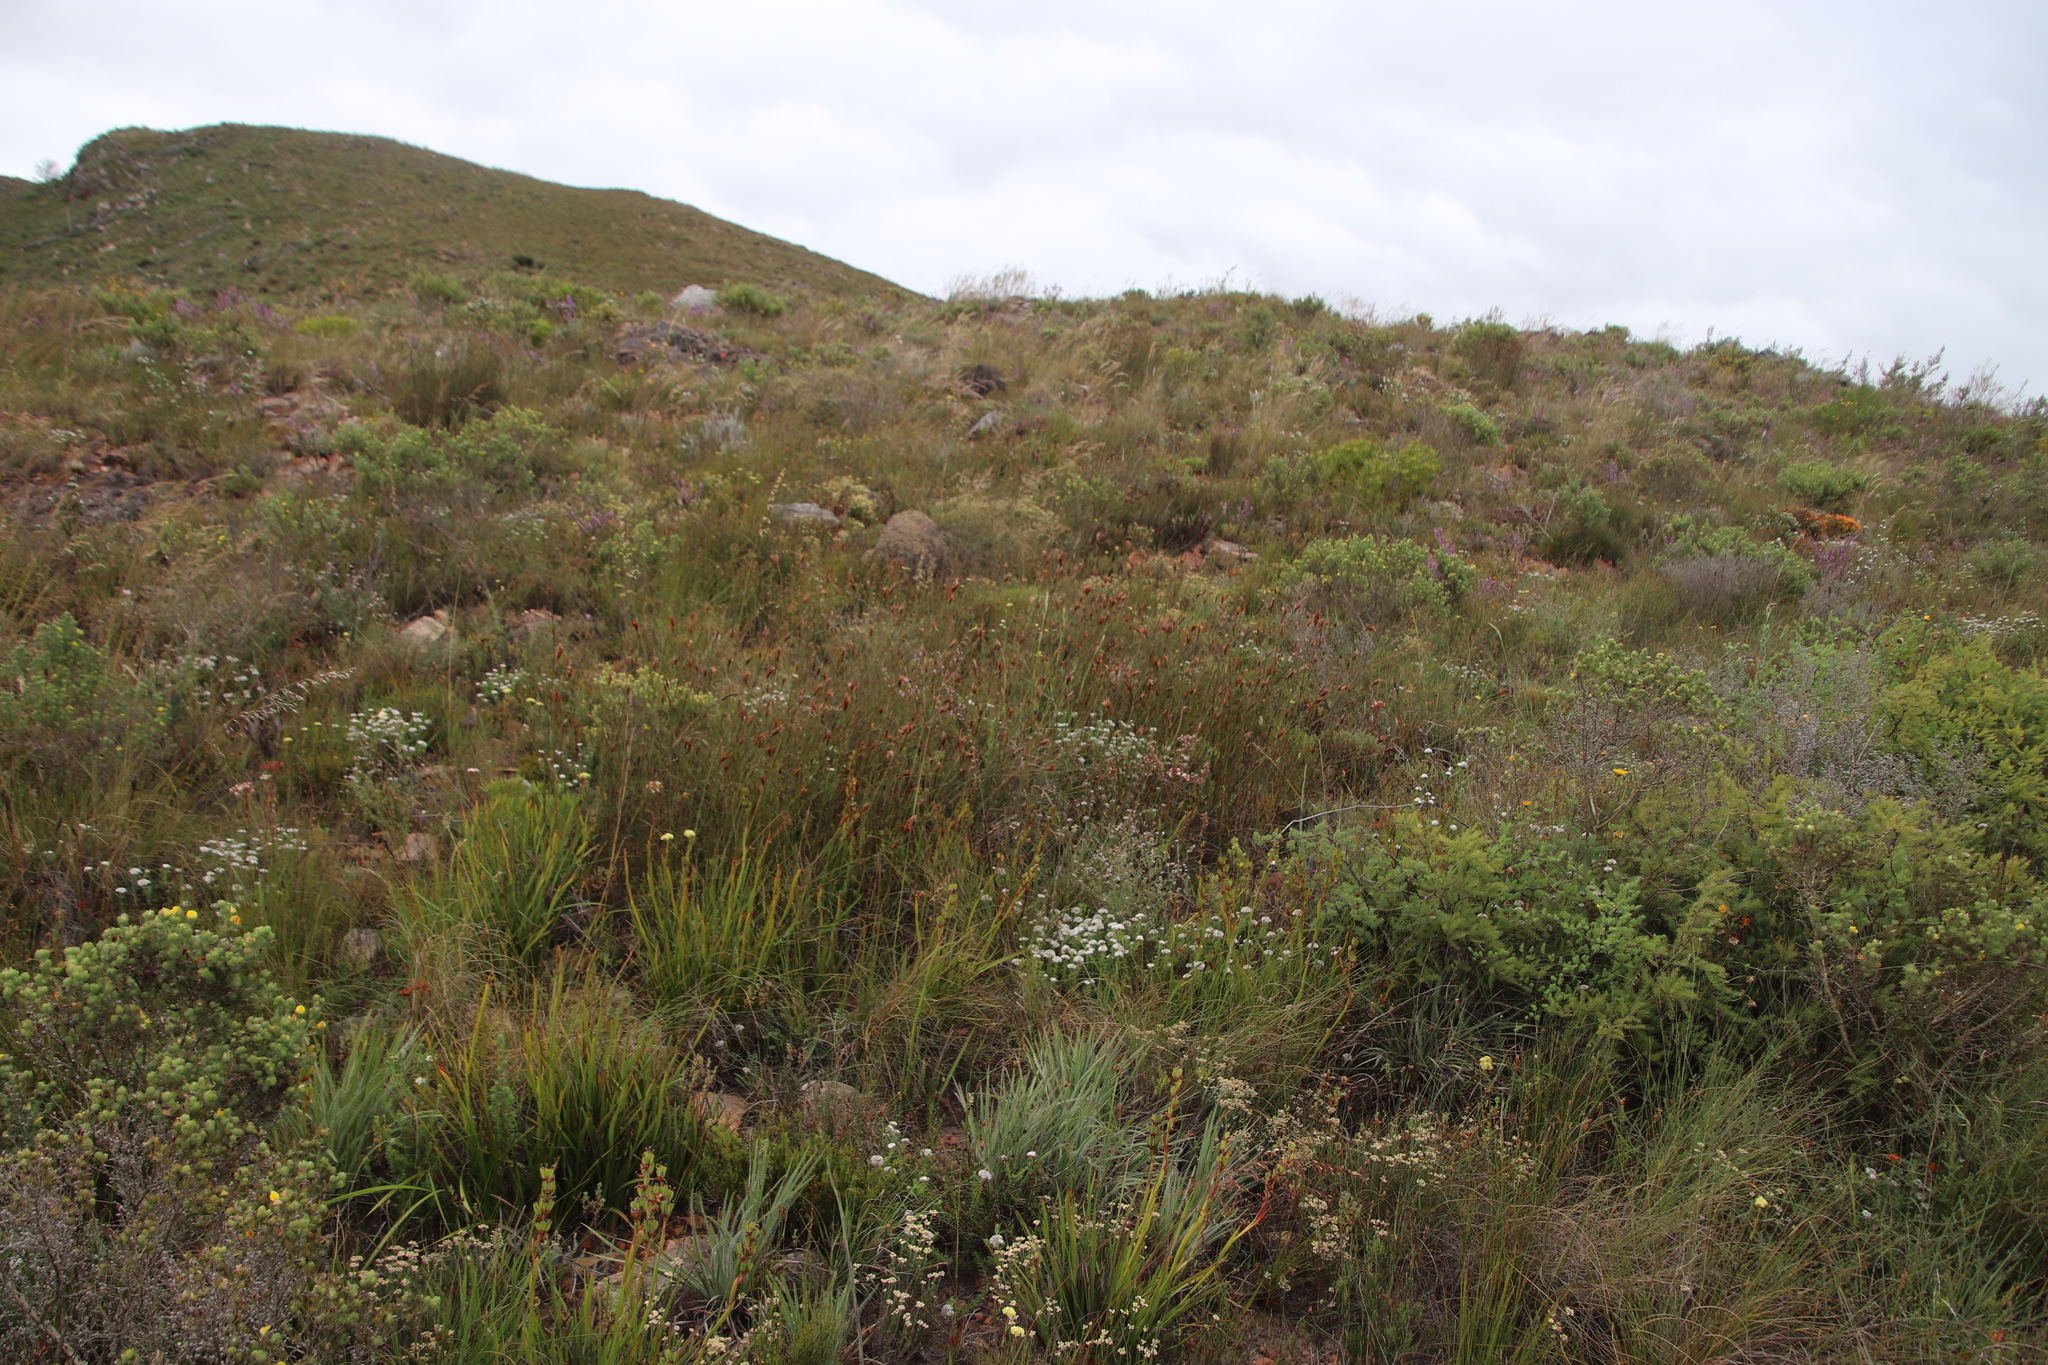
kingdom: Plantae
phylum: Tracheophyta
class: Liliopsida
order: Poales
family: Restionaceae
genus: Willdenowia
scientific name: Willdenowia glomerata
